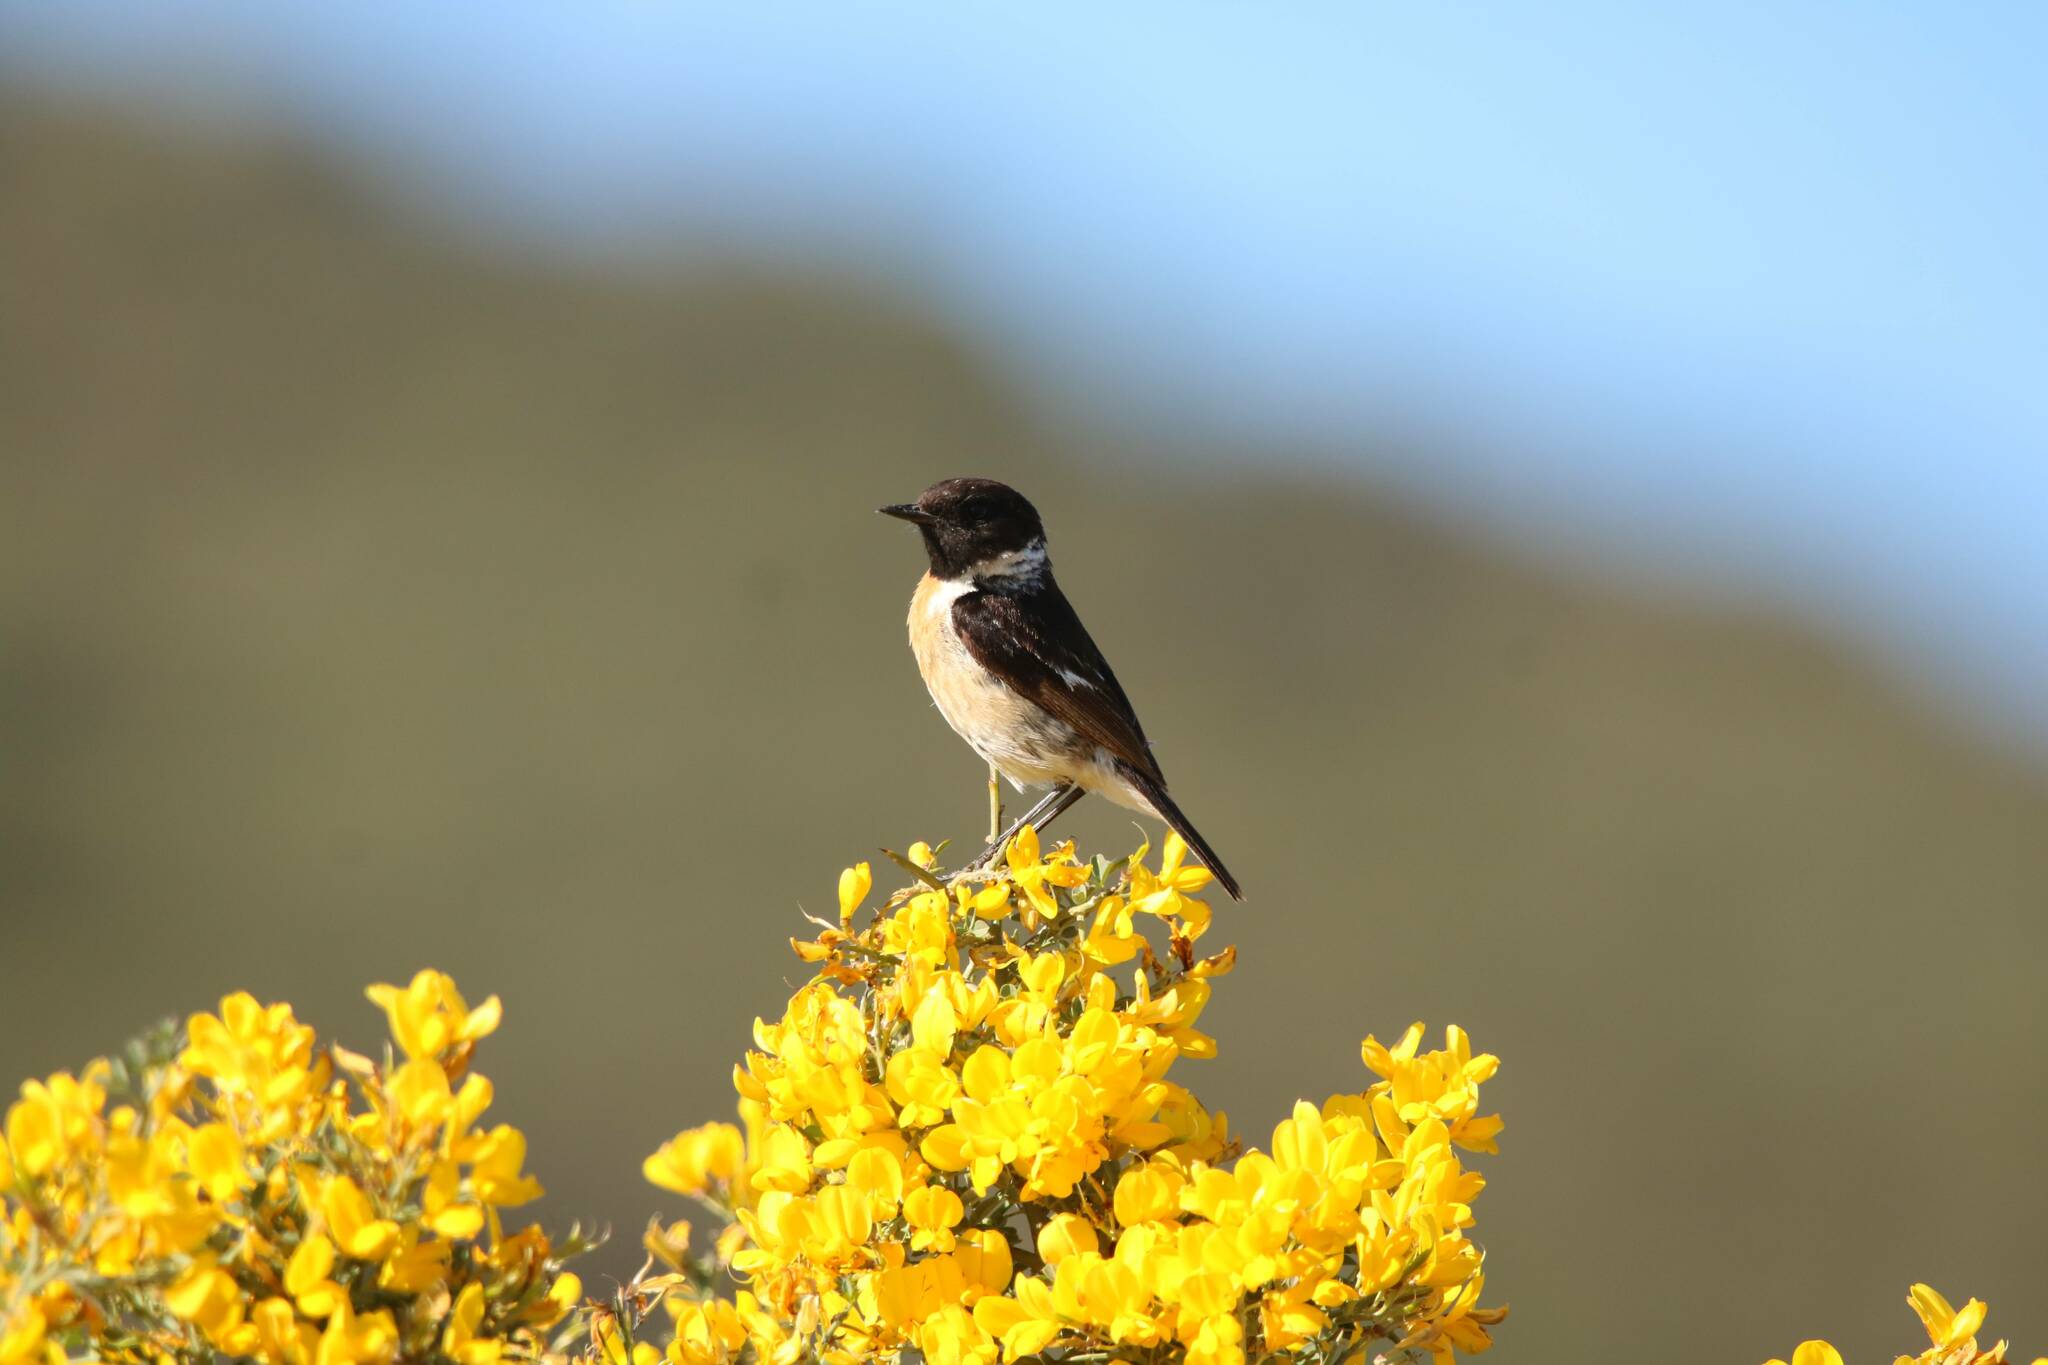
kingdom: Animalia
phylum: Chordata
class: Aves
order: Passeriformes
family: Muscicapidae
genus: Saxicola
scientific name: Saxicola rubicola
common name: European stonechat
